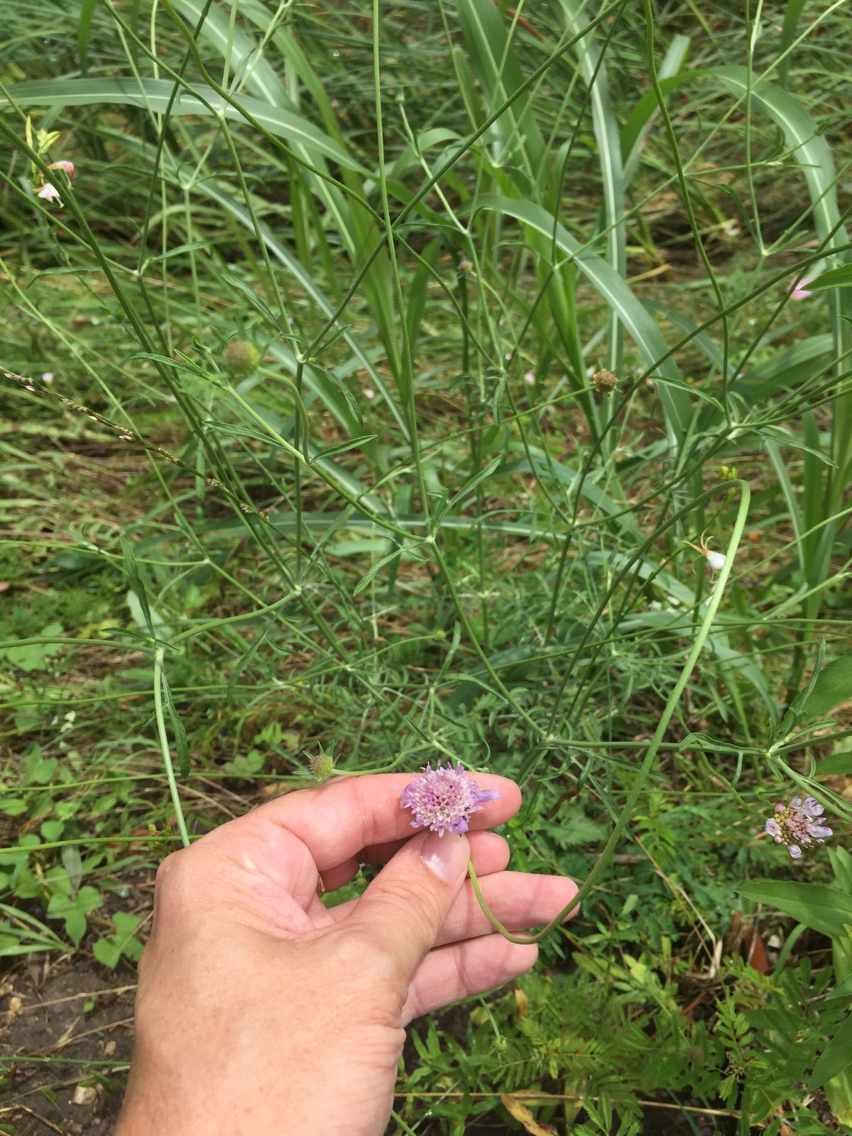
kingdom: Plantae
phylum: Tracheophyta
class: Magnoliopsida
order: Dipsacales
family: Caprifoliaceae
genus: Sixalix
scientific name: Sixalix atropurpurea
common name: Sweet scabious
